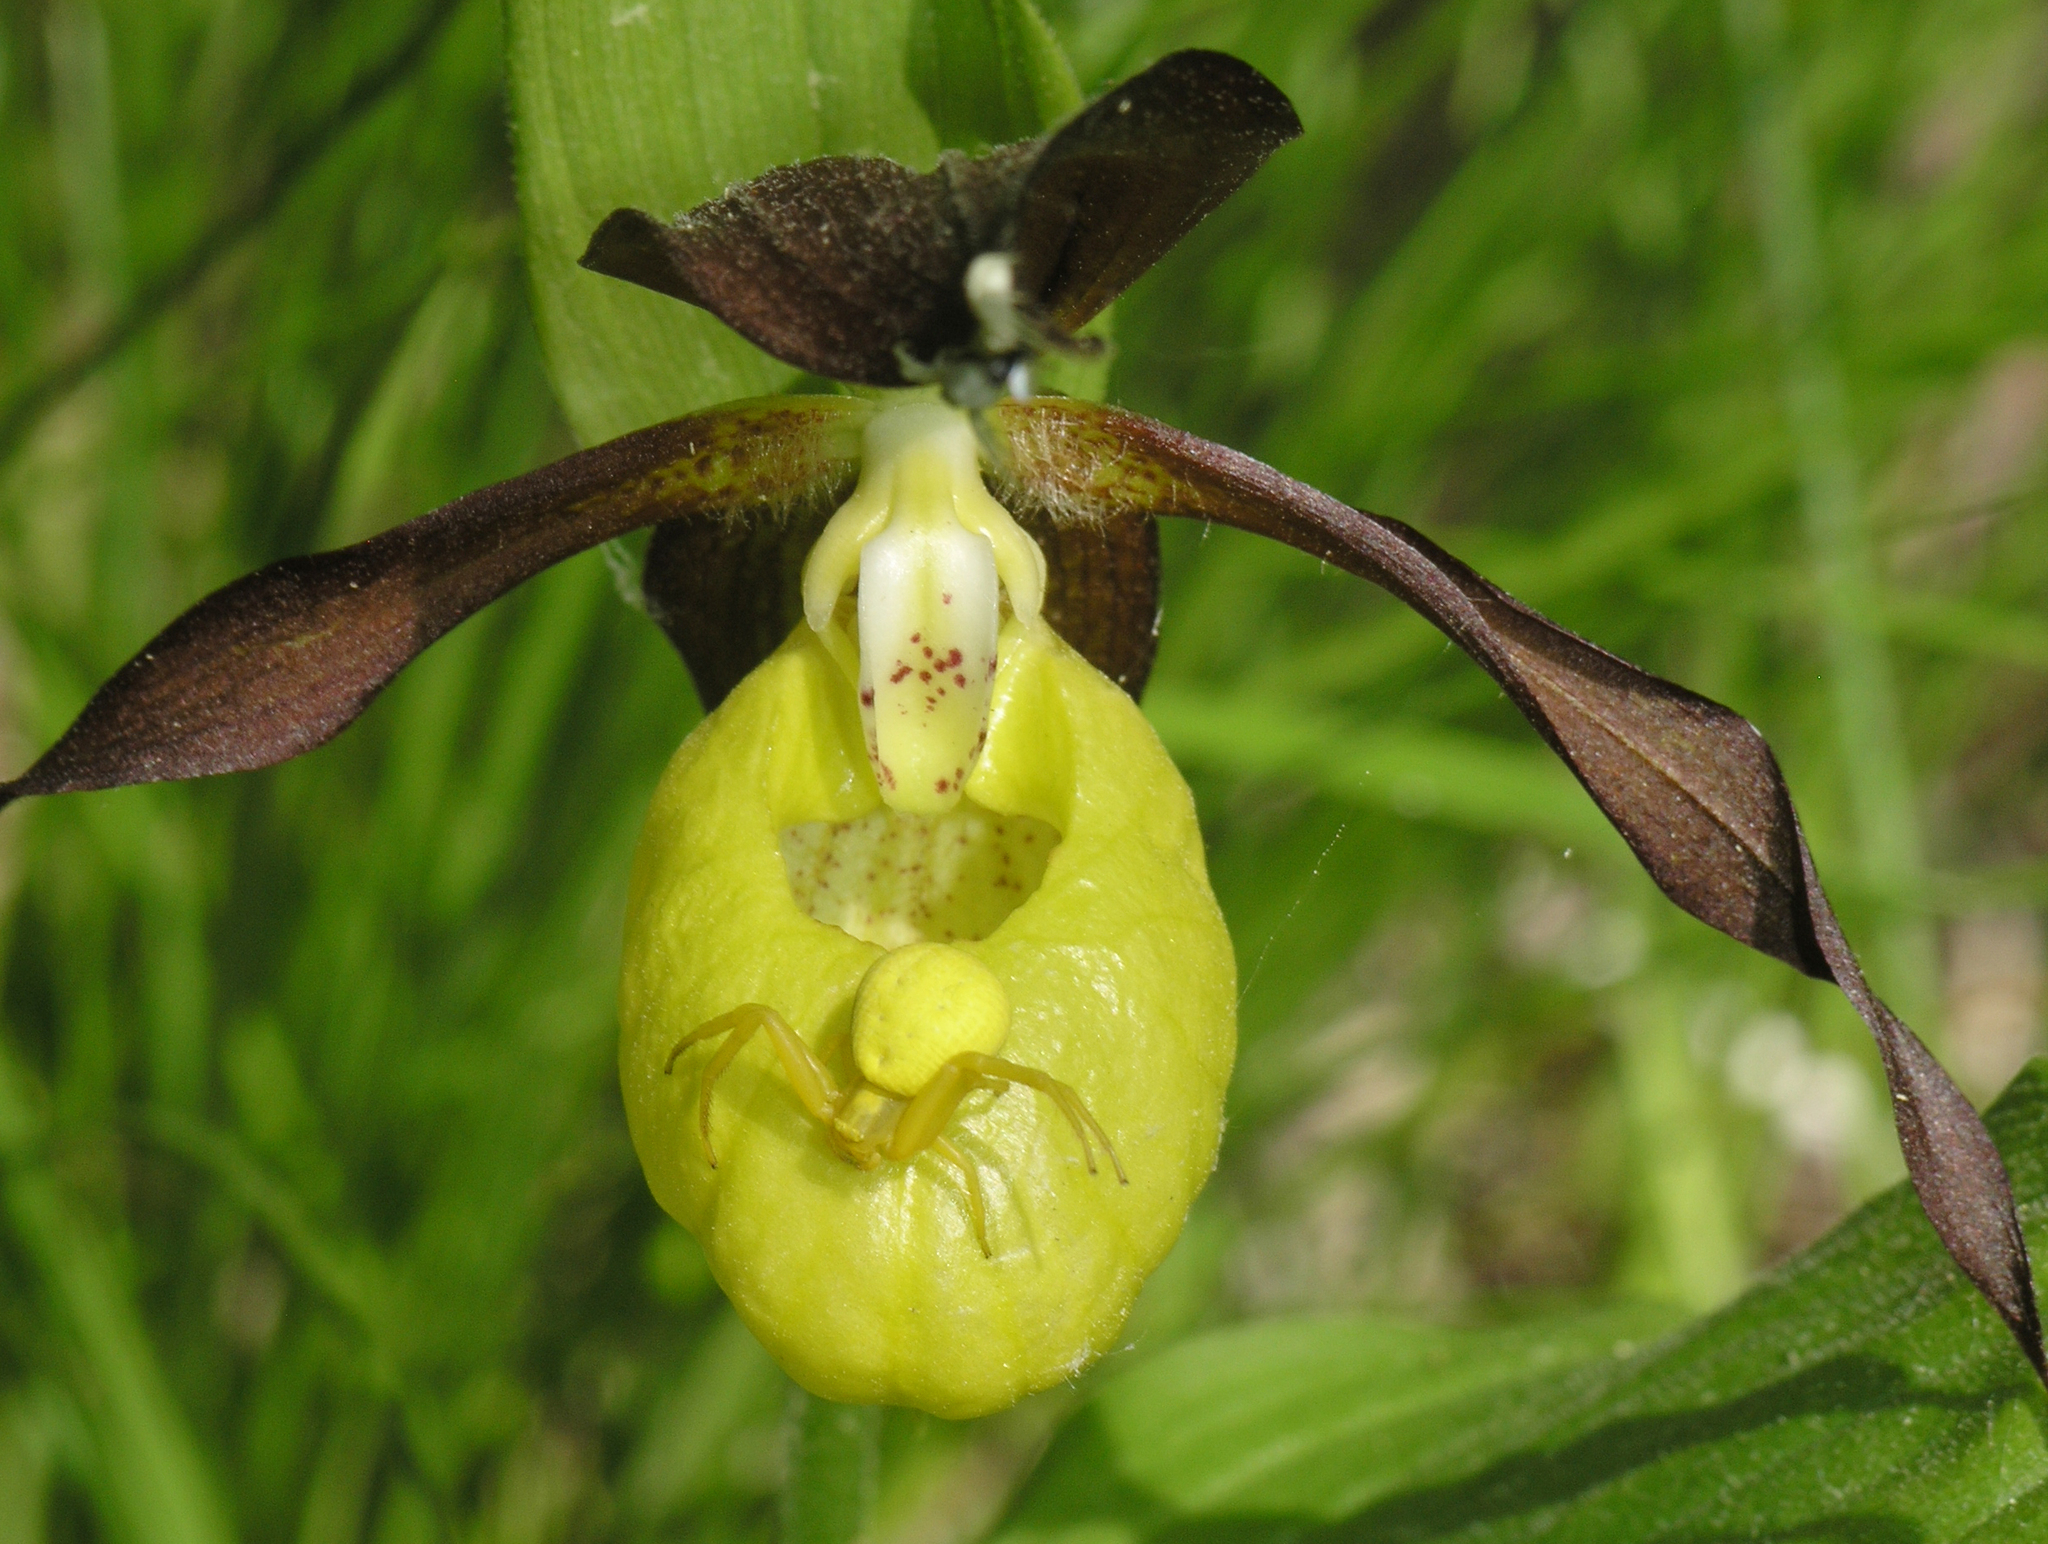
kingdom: Animalia
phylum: Arthropoda
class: Arachnida
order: Araneae
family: Thomisidae
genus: Misumena
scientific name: Misumena vatia
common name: Goldenrod crab spider
